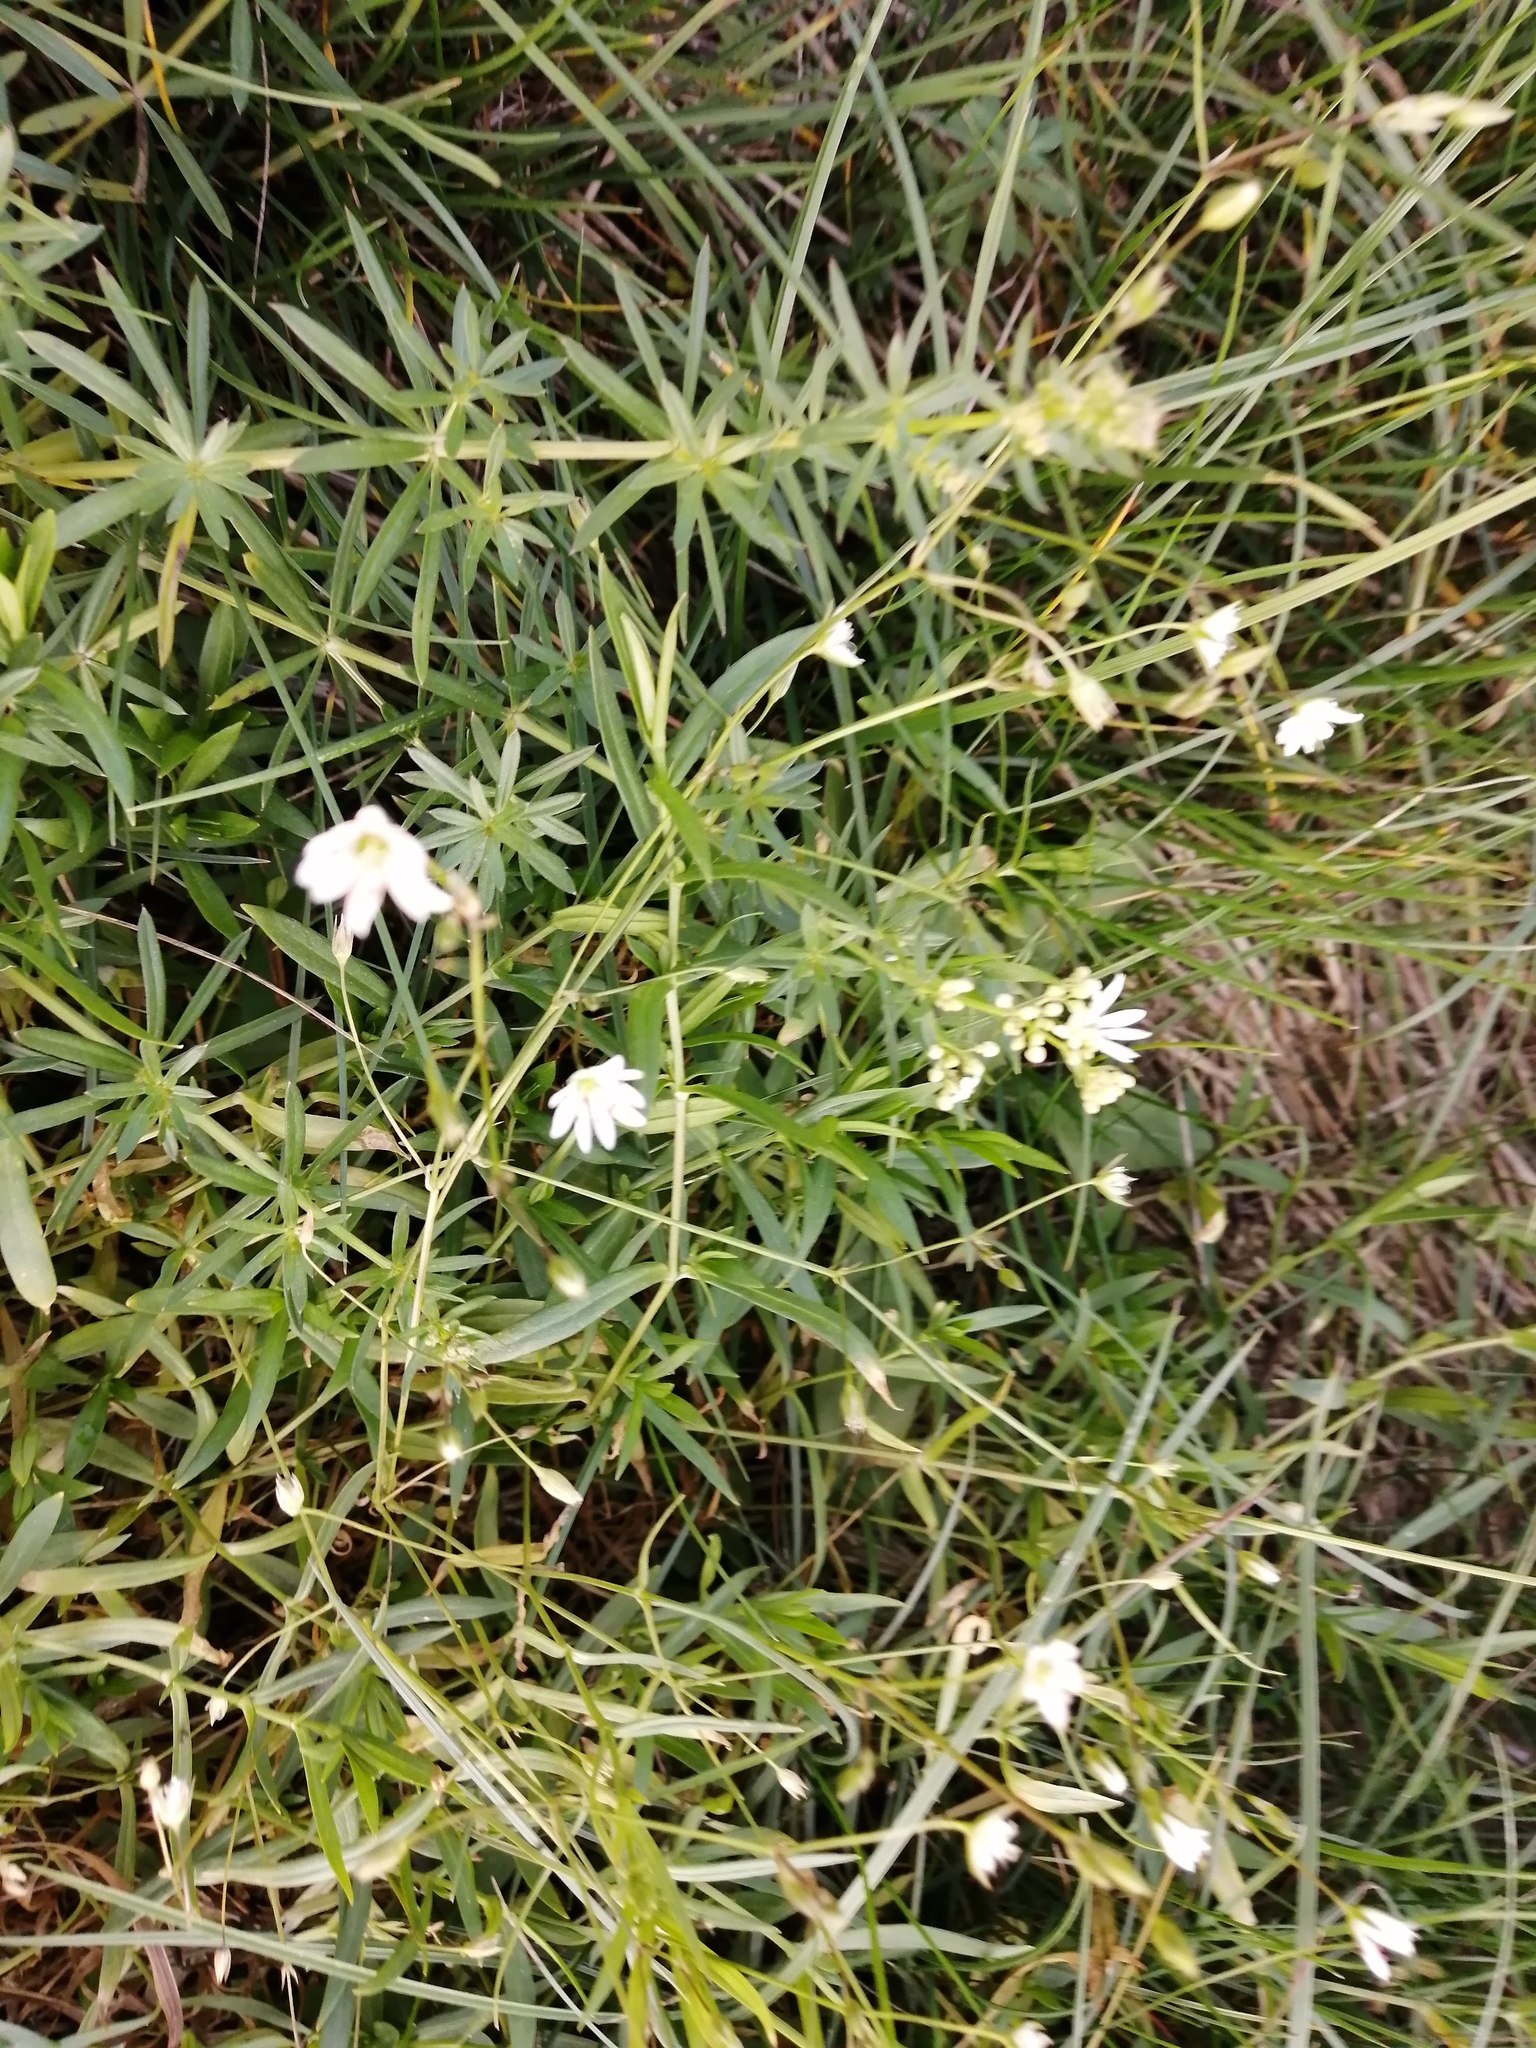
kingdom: Plantae
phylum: Tracheophyta
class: Magnoliopsida
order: Caryophyllales
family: Caryophyllaceae
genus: Stellaria
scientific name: Stellaria graminea
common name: Grass-like starwort
